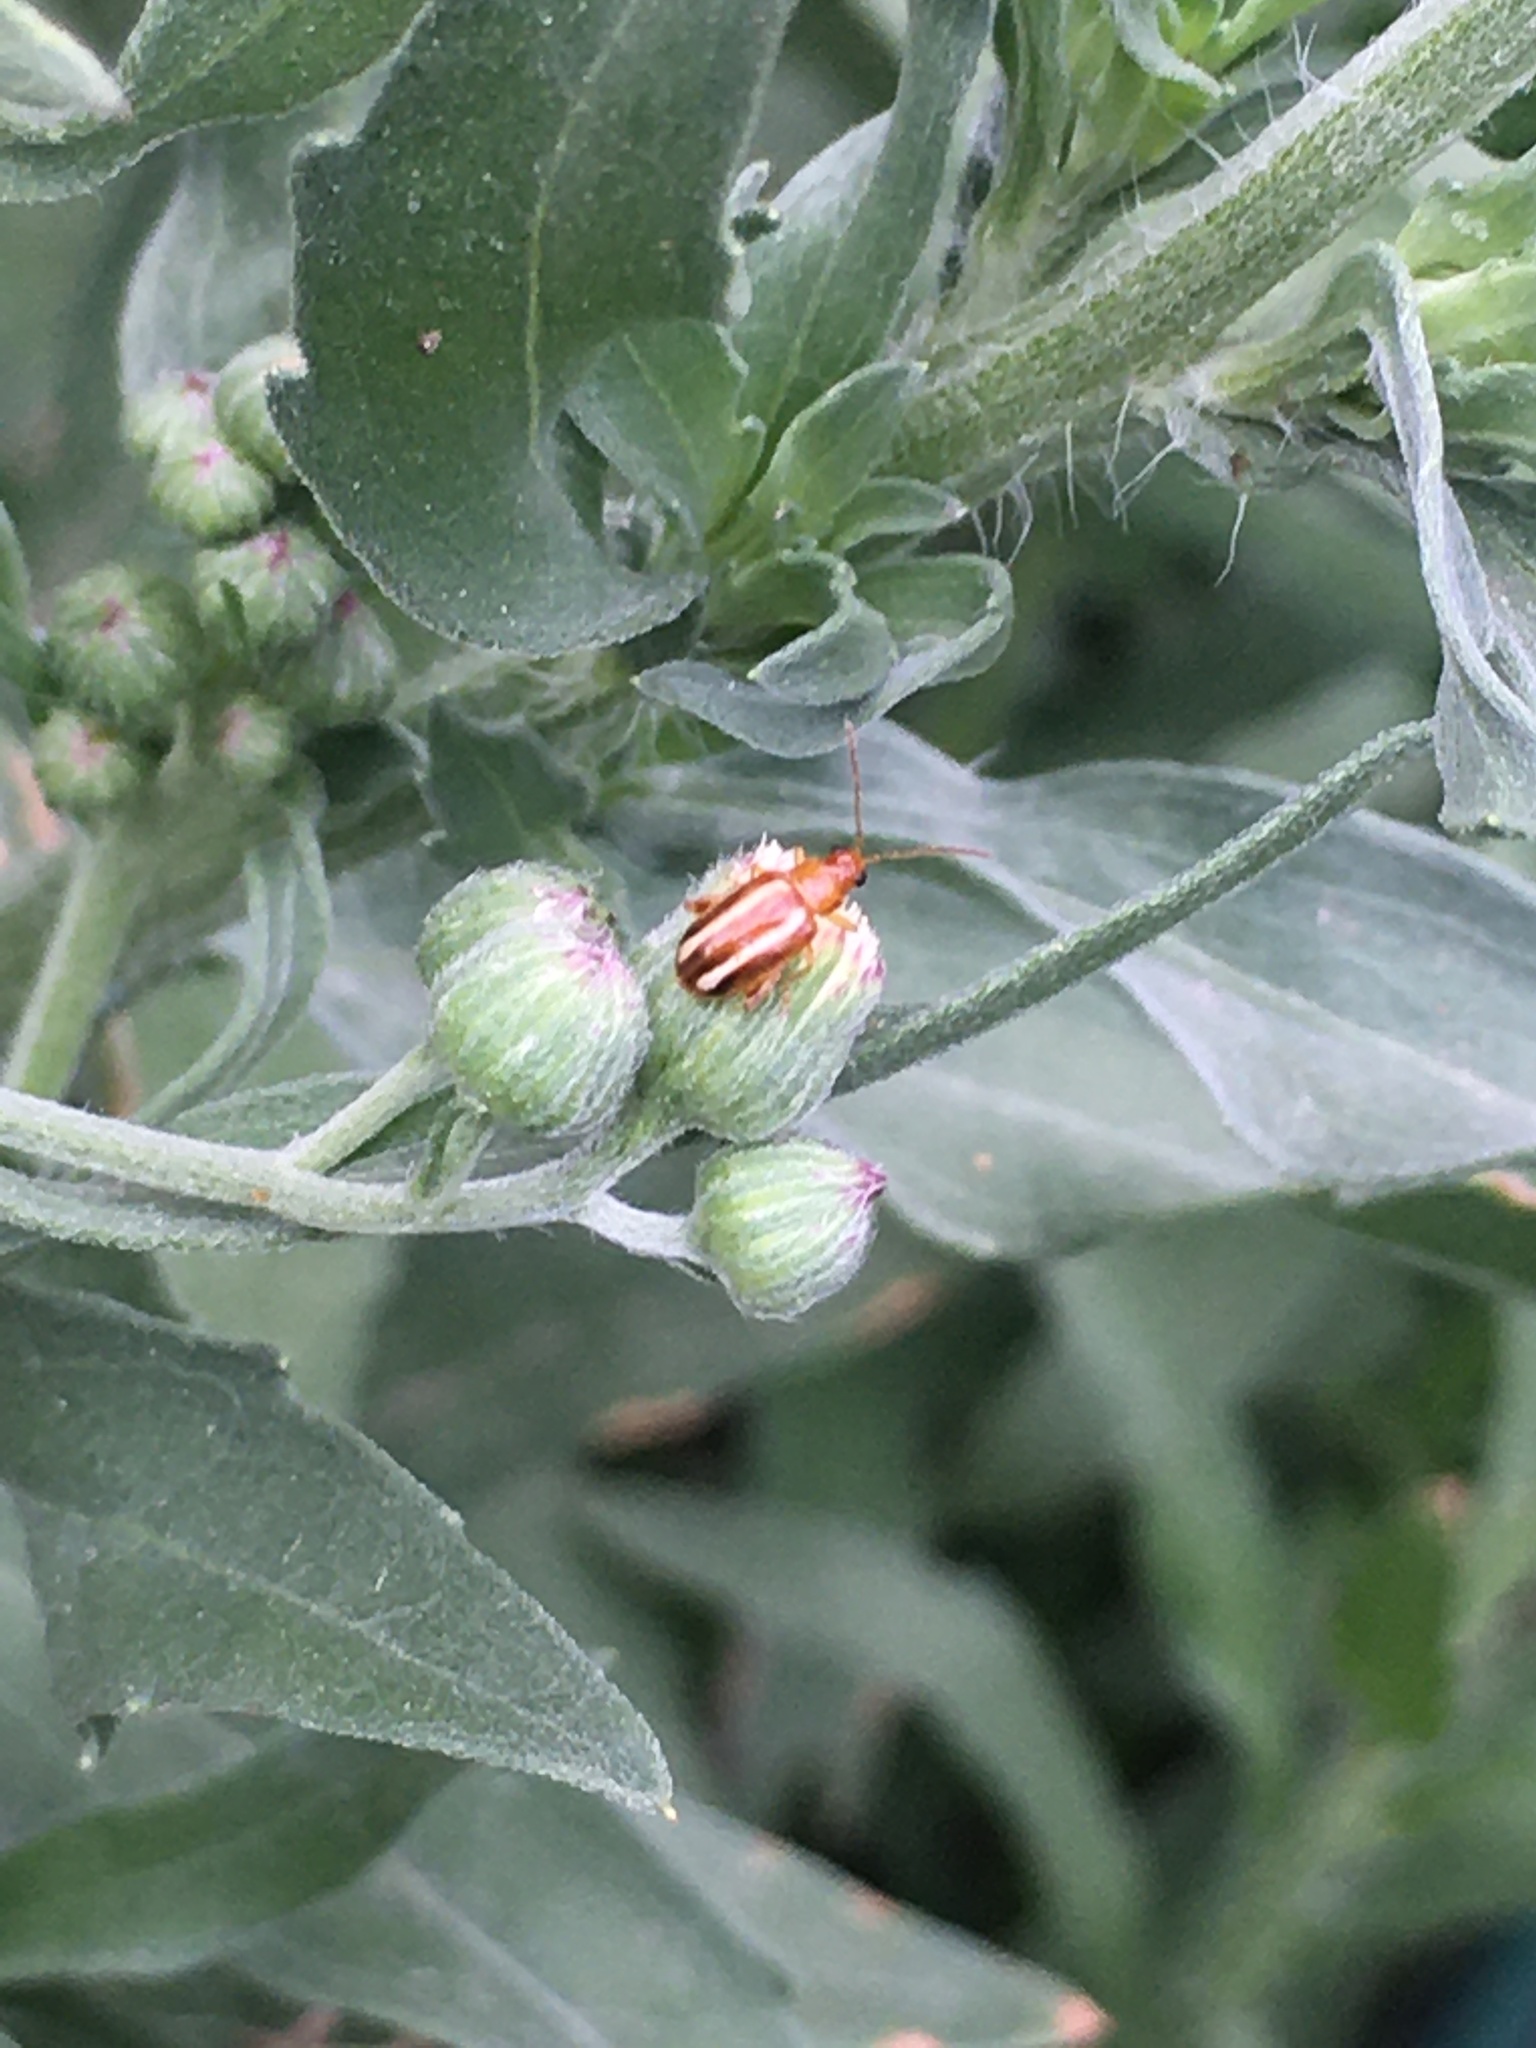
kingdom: Animalia
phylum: Arthropoda
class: Insecta
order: Coleoptera
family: Chrysomelidae
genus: Systena
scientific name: Systena
